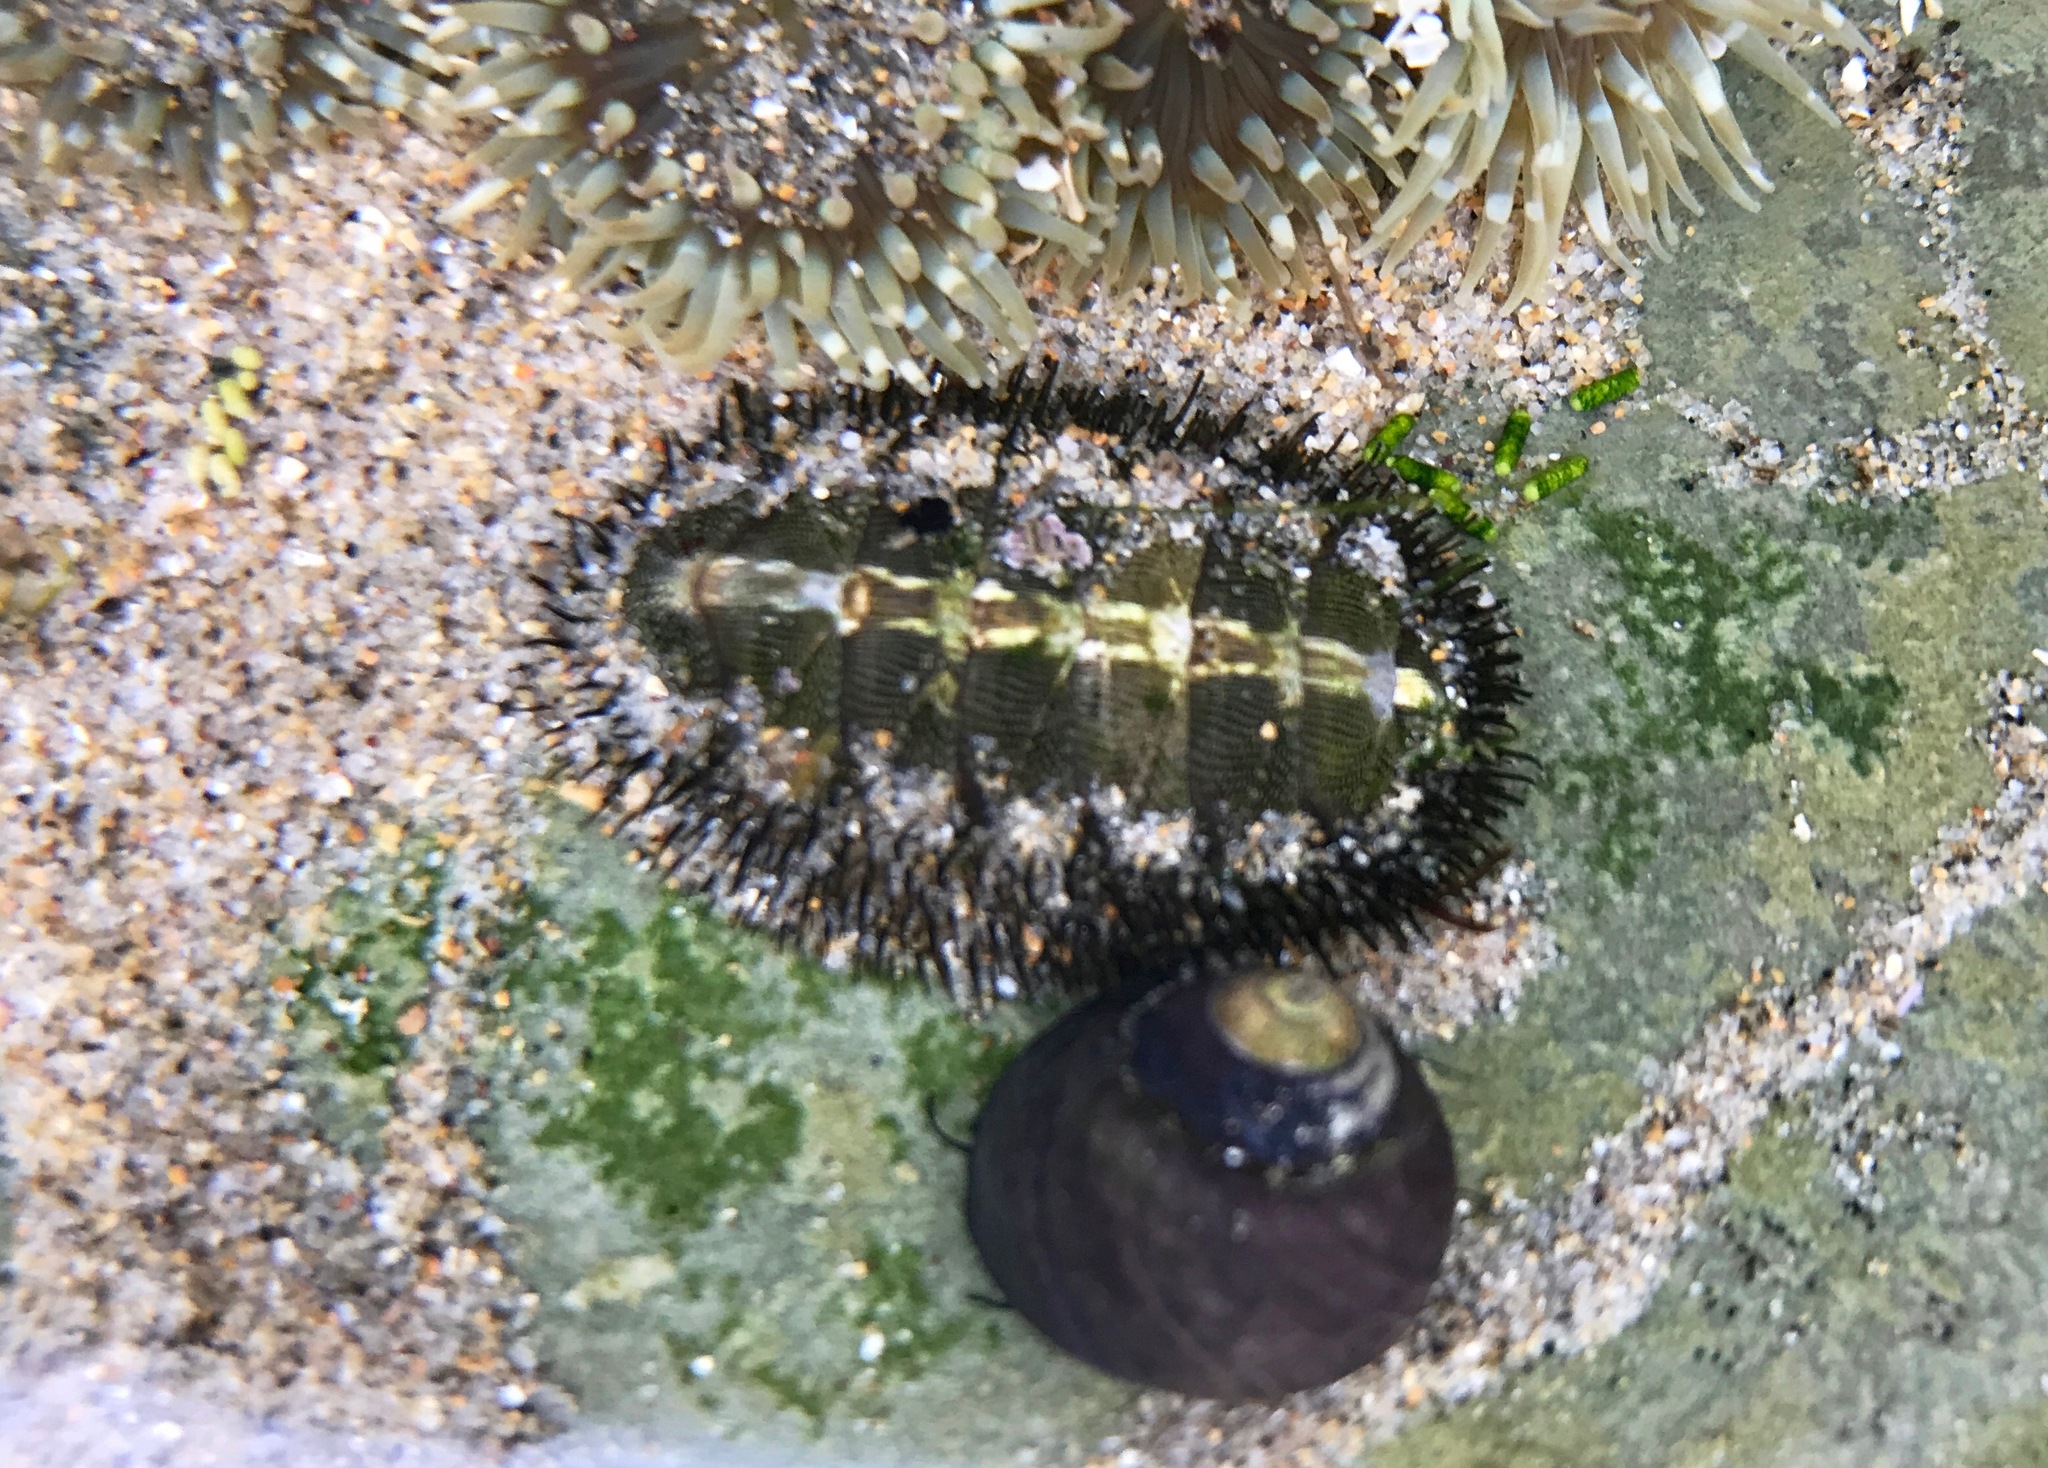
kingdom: Animalia
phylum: Mollusca
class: Polyplacophora
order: Chitonida
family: Mopaliidae
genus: Mopalia
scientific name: Mopalia muscosa
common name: Mossy chiton
